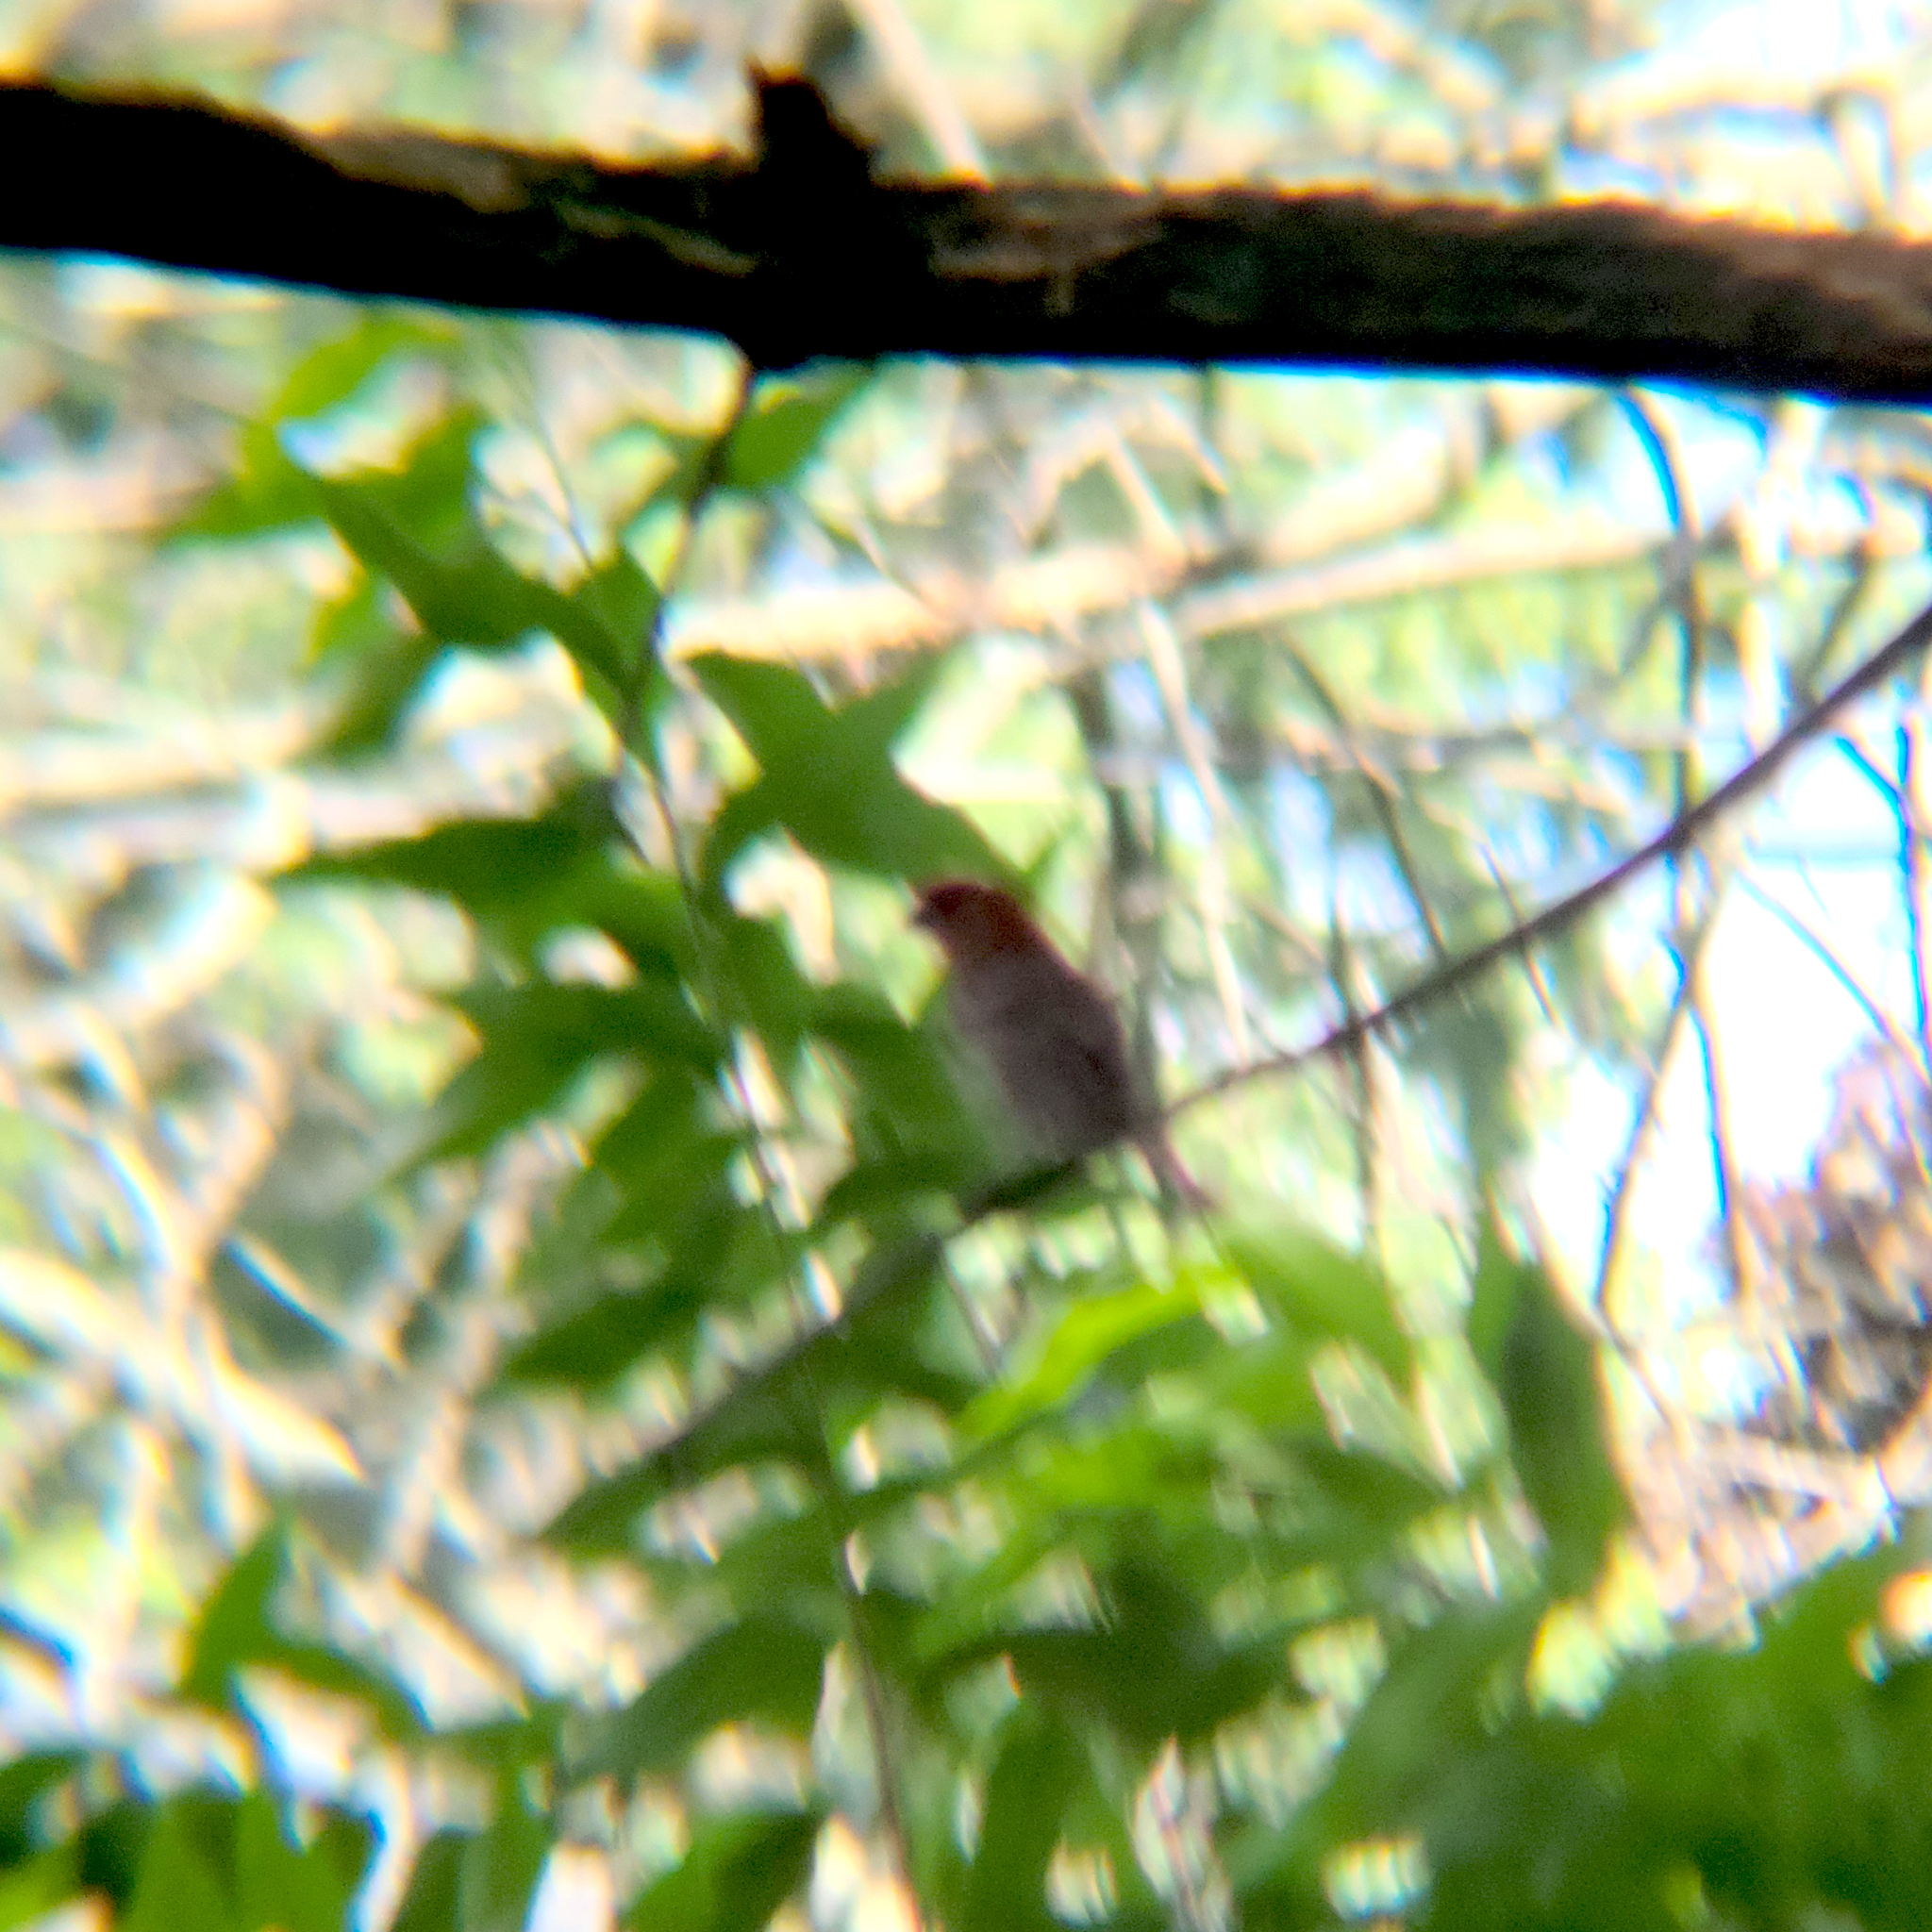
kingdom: Animalia
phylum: Chordata
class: Aves
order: Passeriformes
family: Fringillidae
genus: Haemorhous
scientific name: Haemorhous mexicanus
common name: House finch
